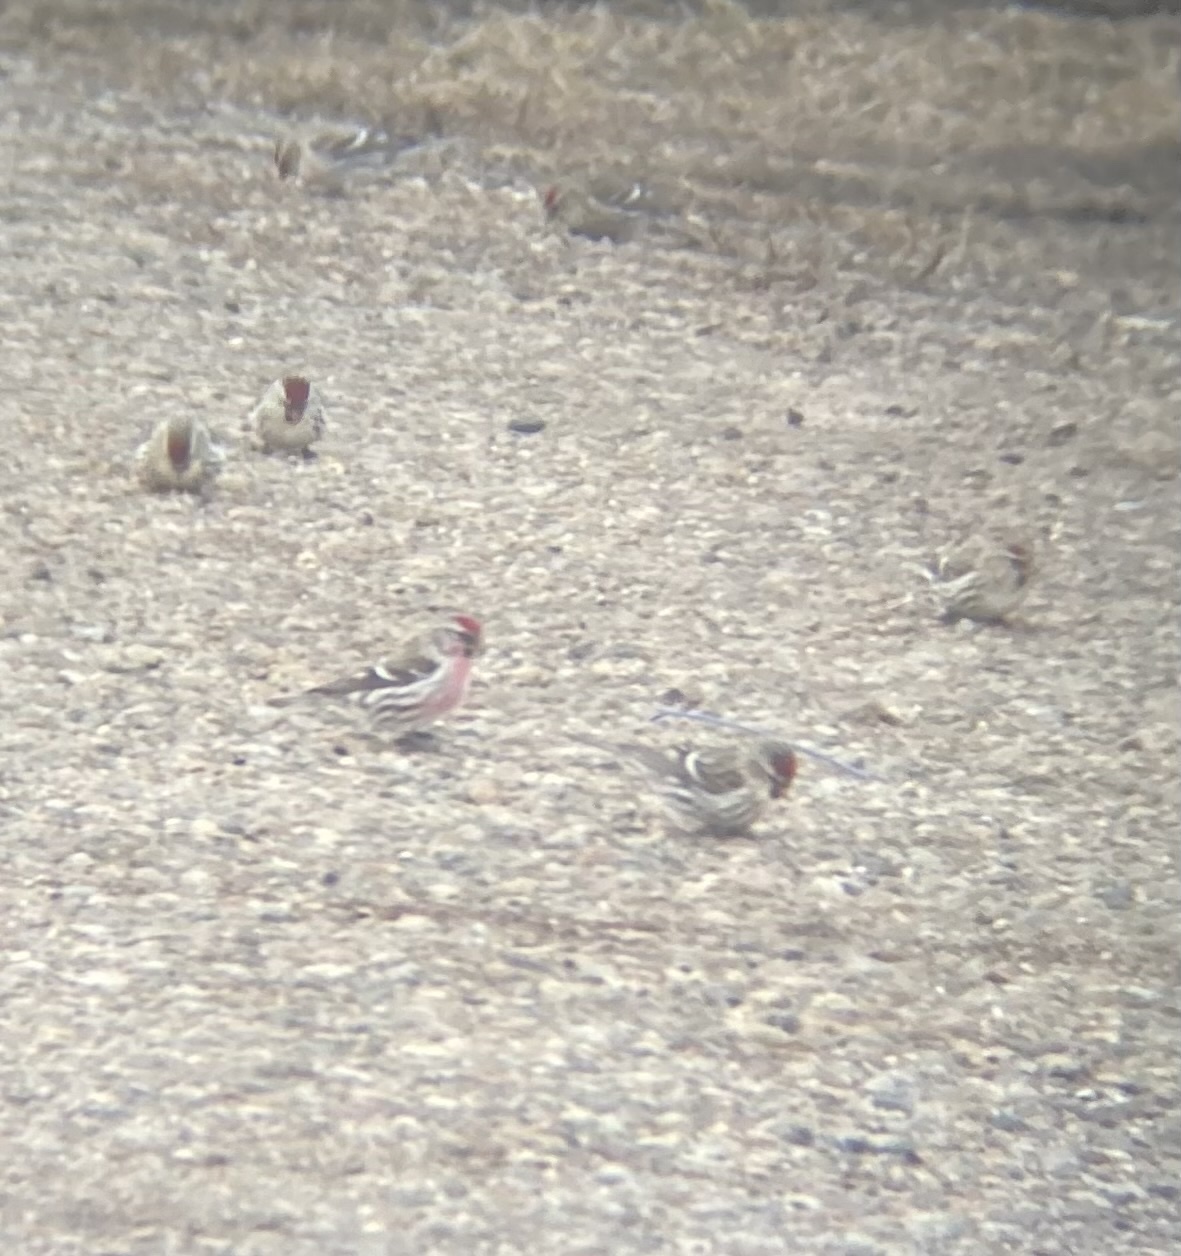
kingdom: Animalia
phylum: Chordata
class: Aves
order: Passeriformes
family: Fringillidae
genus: Acanthis
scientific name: Acanthis flammea
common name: Common redpoll
